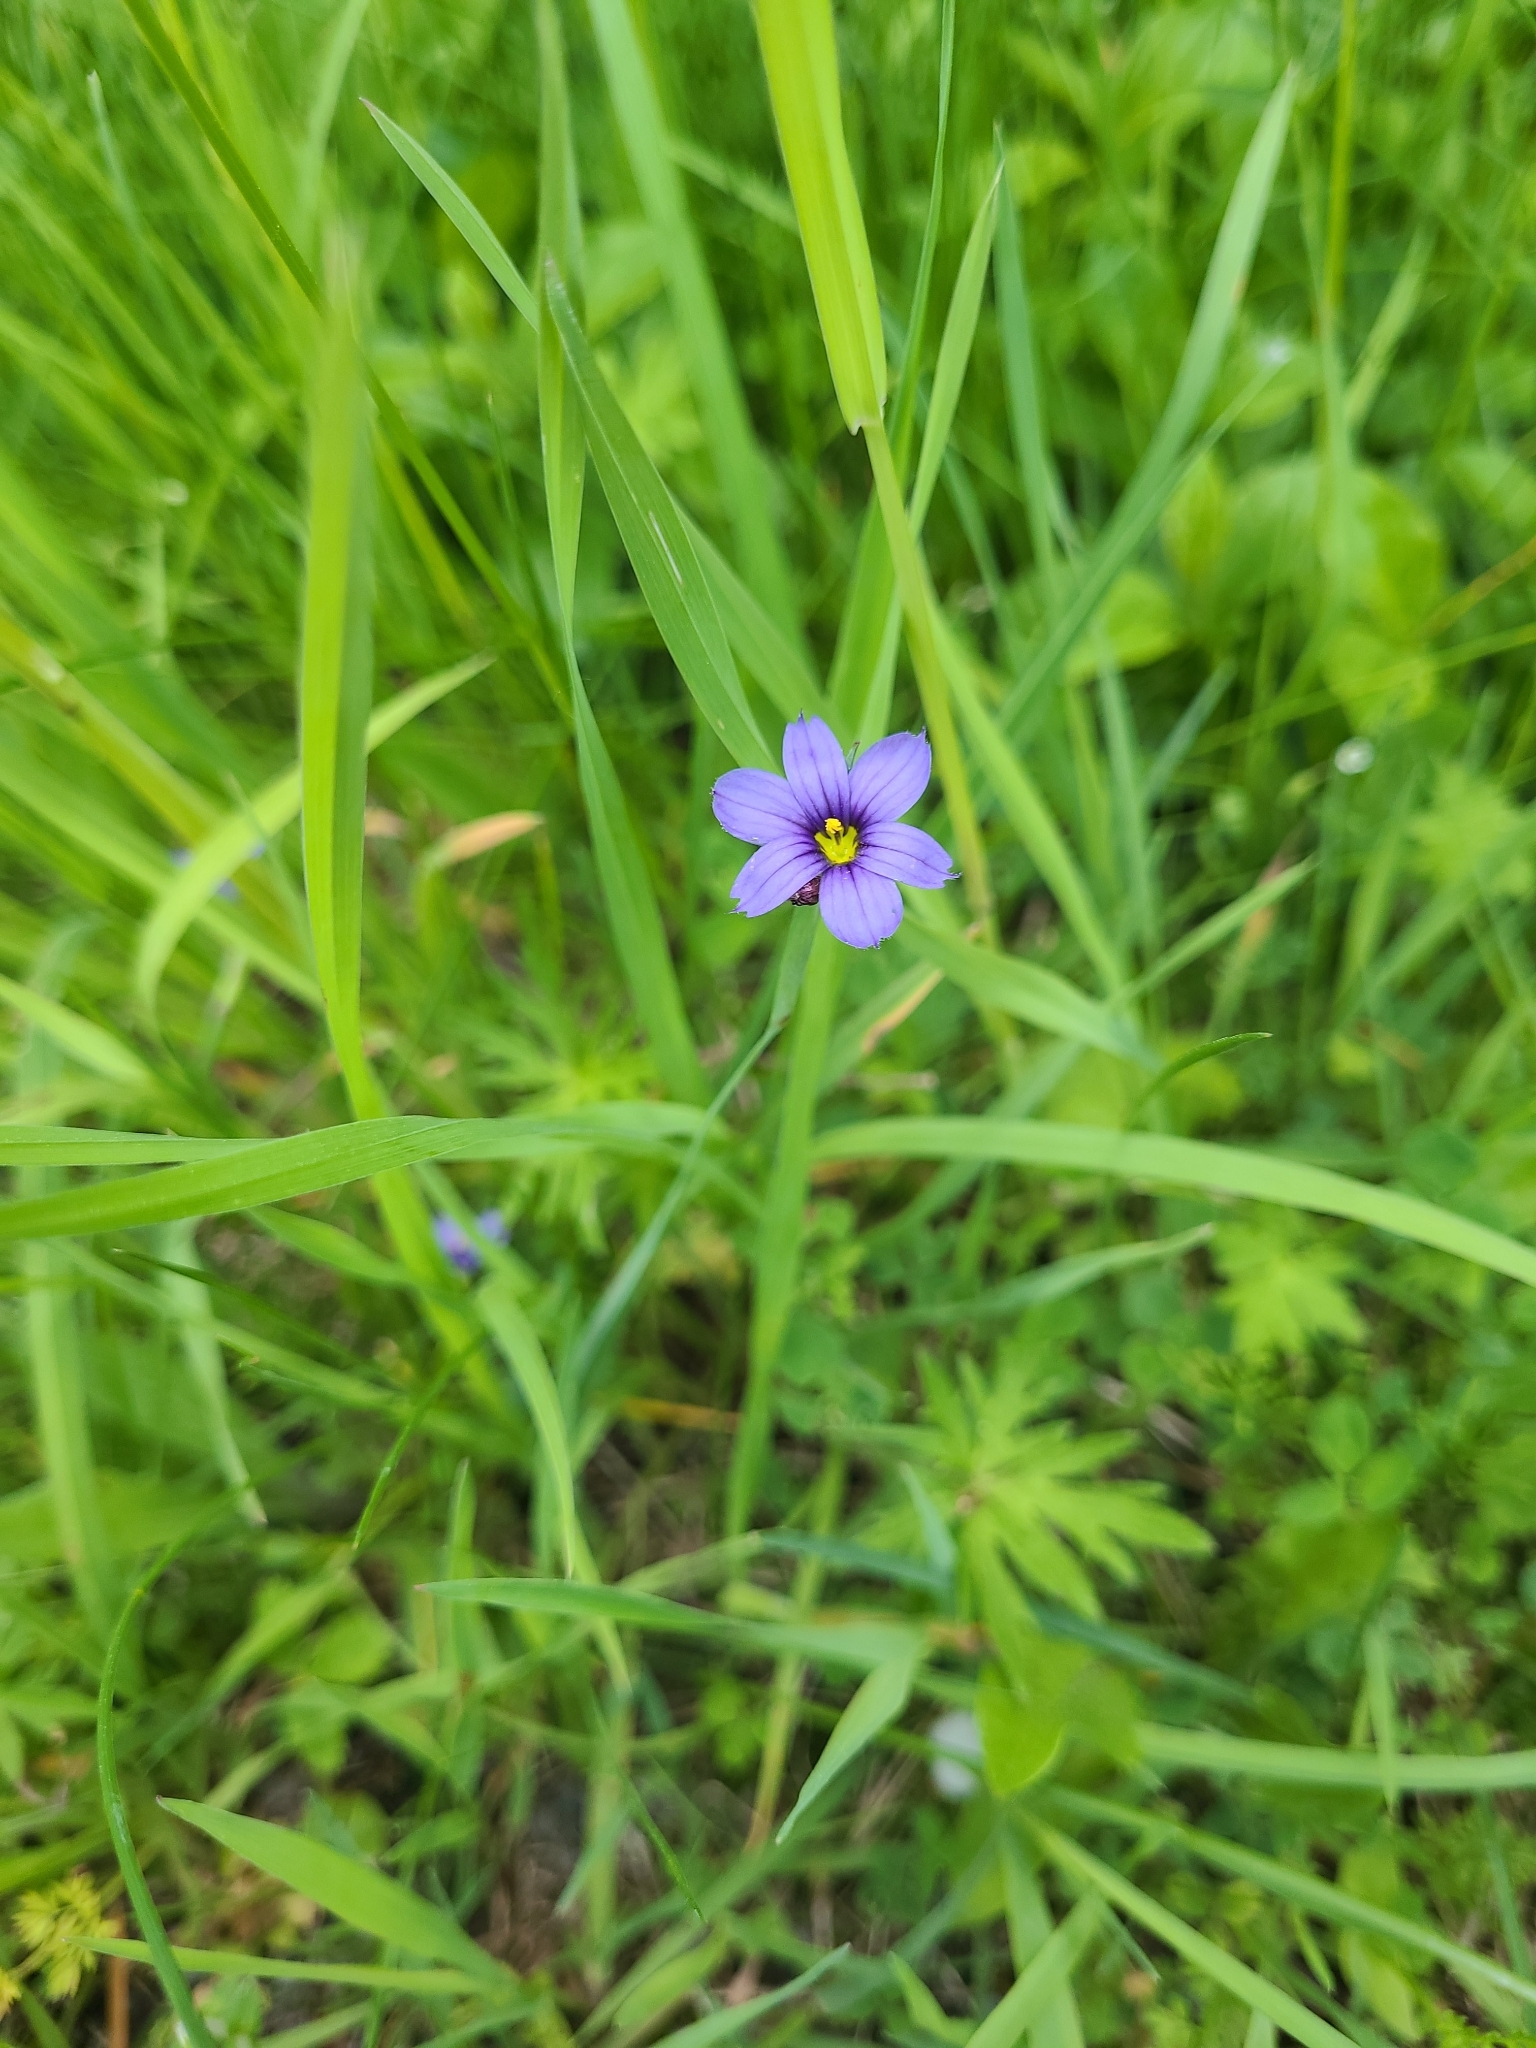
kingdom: Plantae
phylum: Tracheophyta
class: Liliopsida
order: Asparagales
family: Iridaceae
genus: Sisyrinchium
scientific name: Sisyrinchium montanum
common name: American blue-eyed-grass
